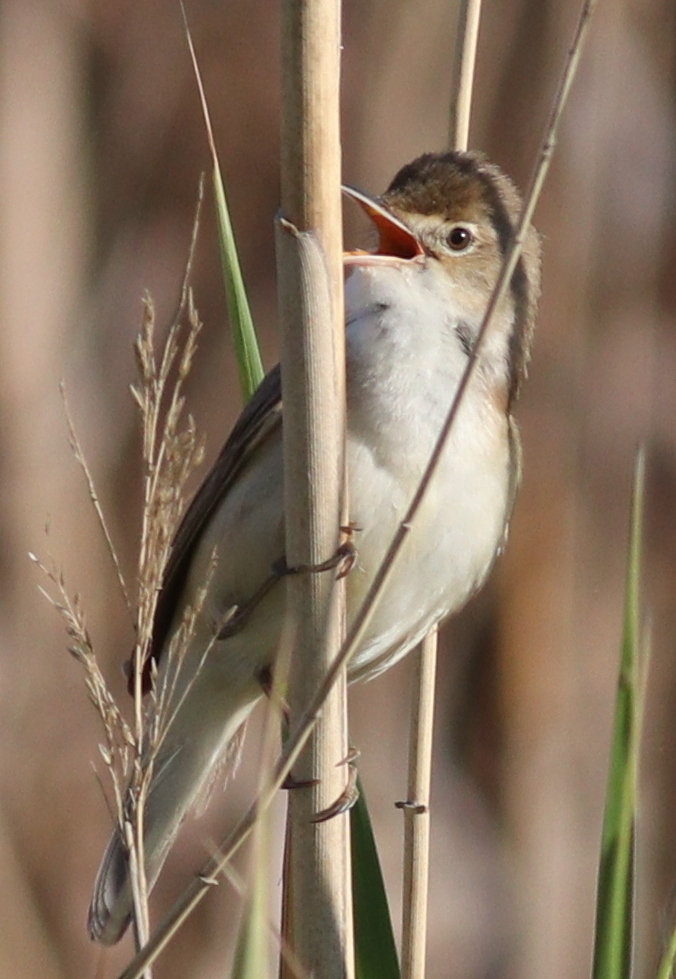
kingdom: Animalia
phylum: Chordata
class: Aves
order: Passeriformes
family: Acrocephalidae
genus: Acrocephalus
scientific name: Acrocephalus scirpaceus
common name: Eurasian reed warbler
